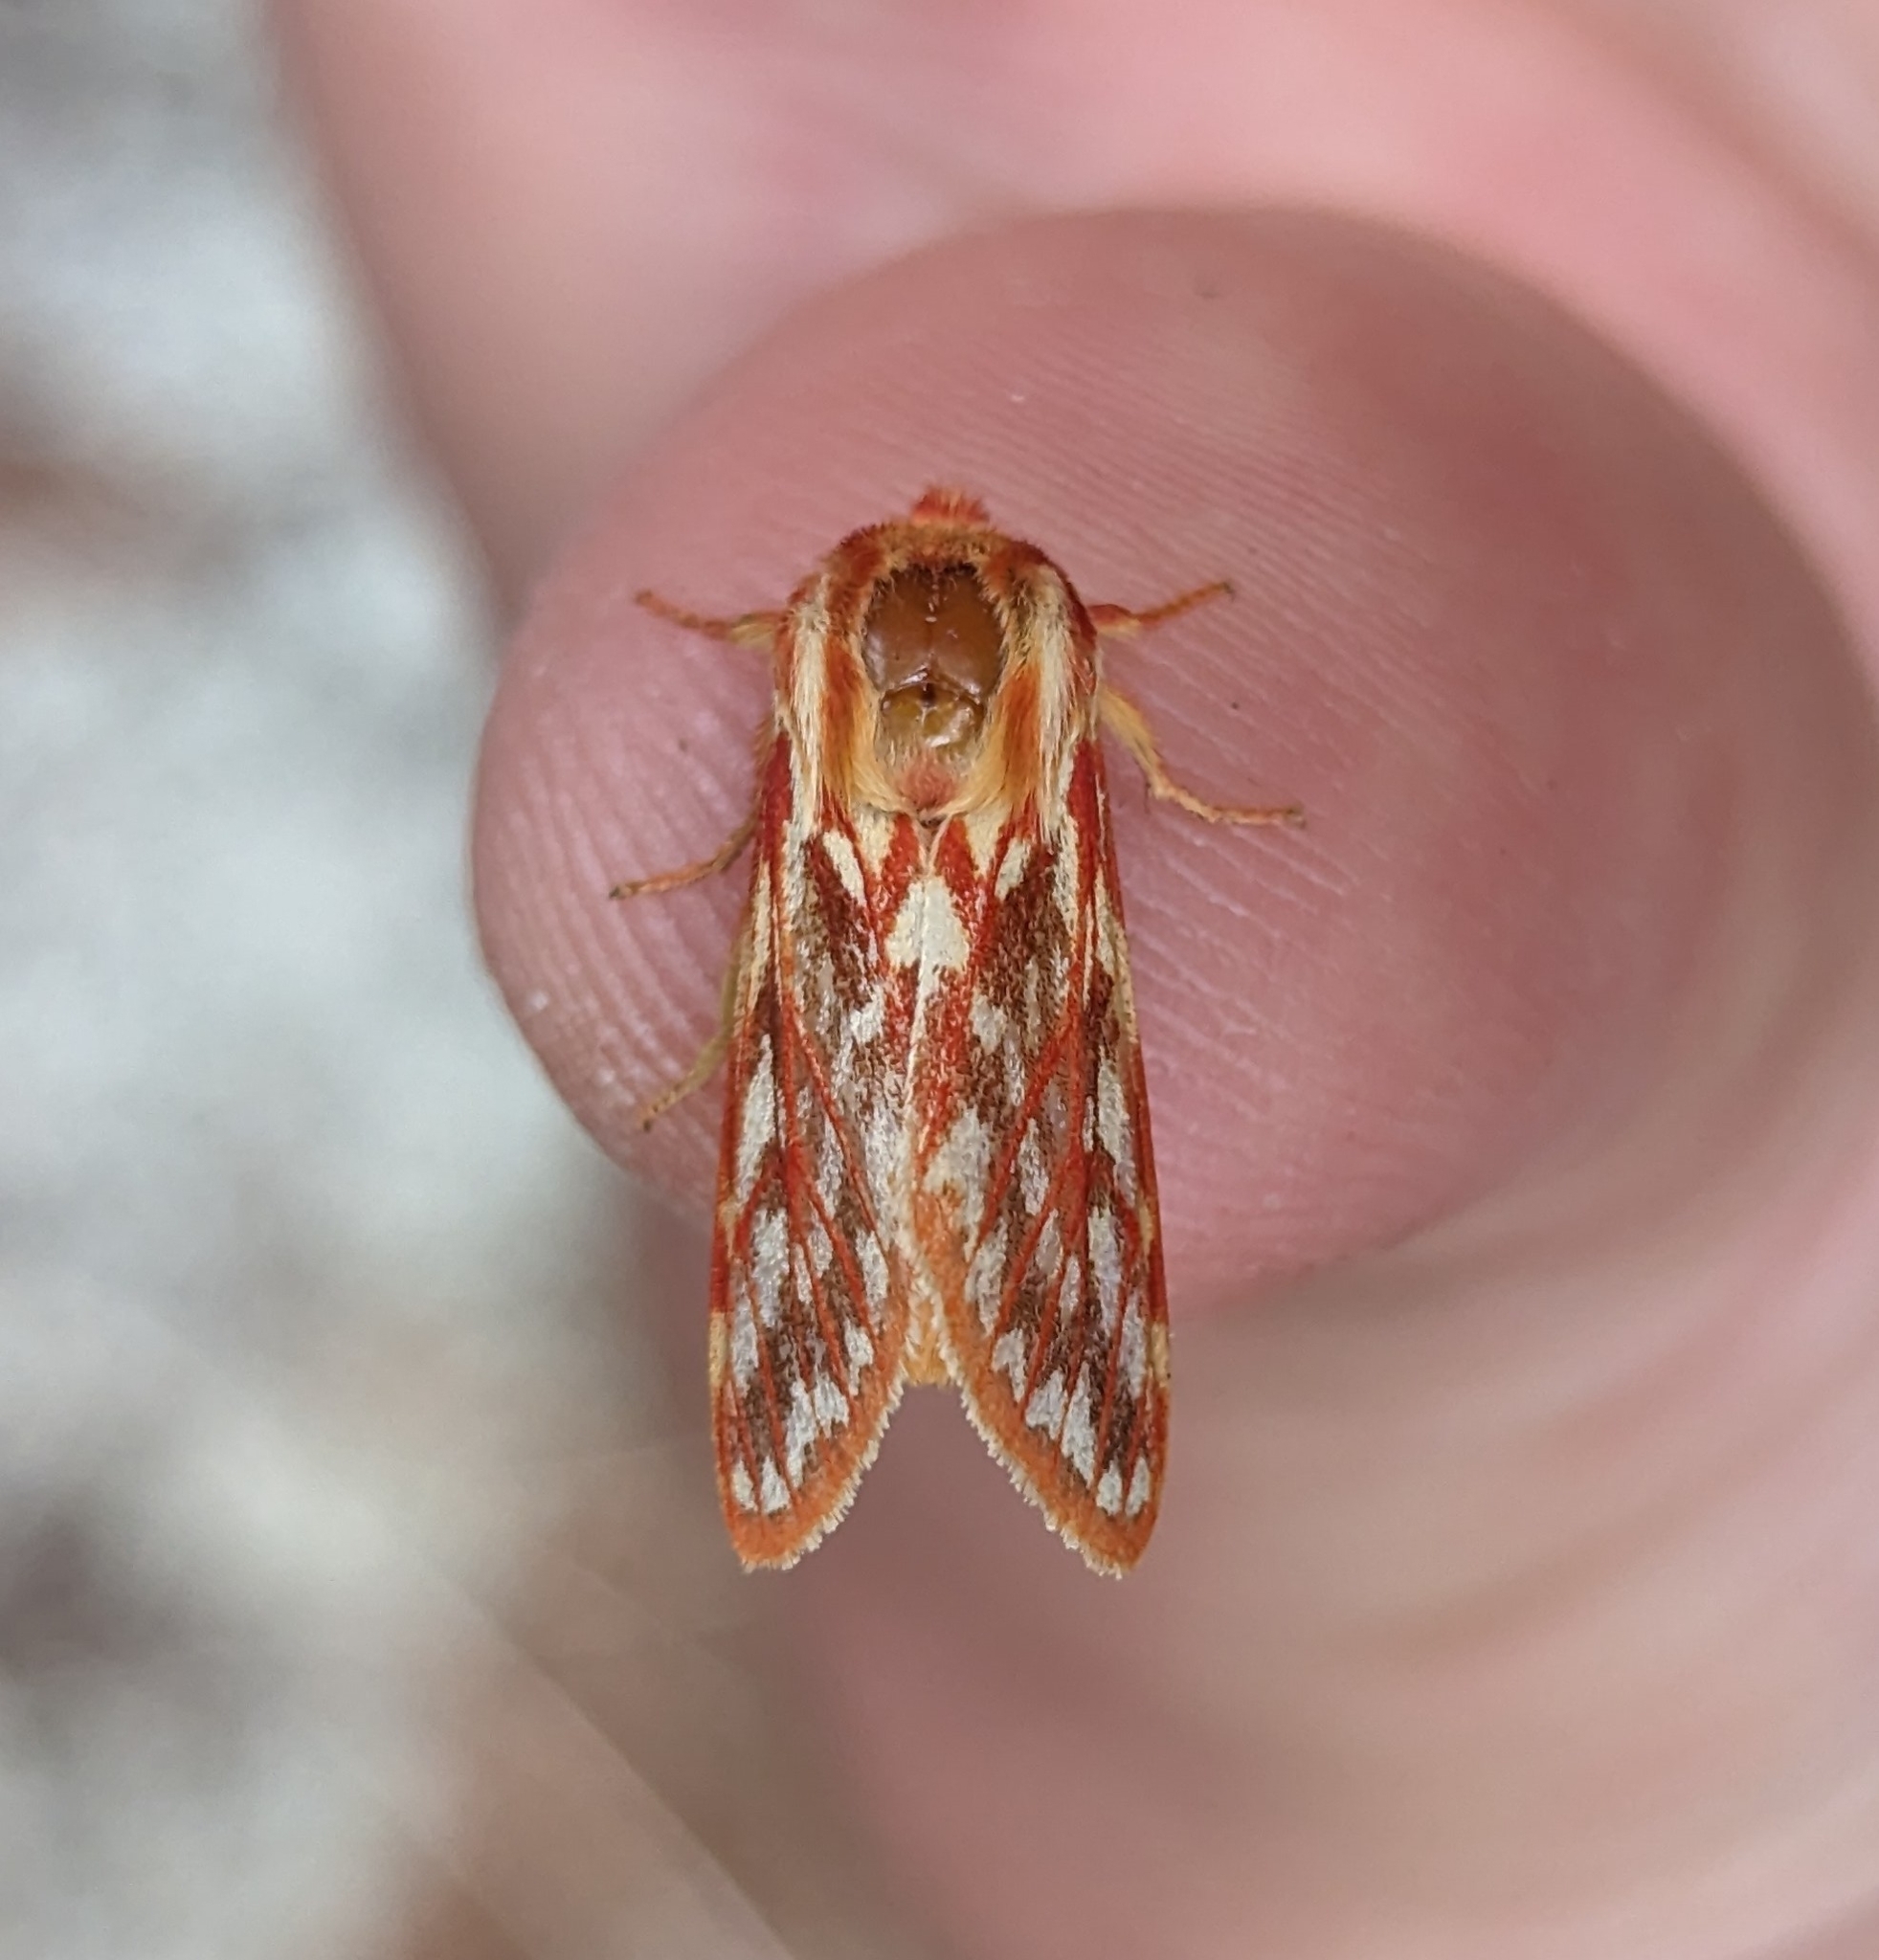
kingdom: Animalia
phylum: Arthropoda
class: Insecta
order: Lepidoptera
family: Erebidae
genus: Lophocampa
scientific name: Lophocampa roseata
